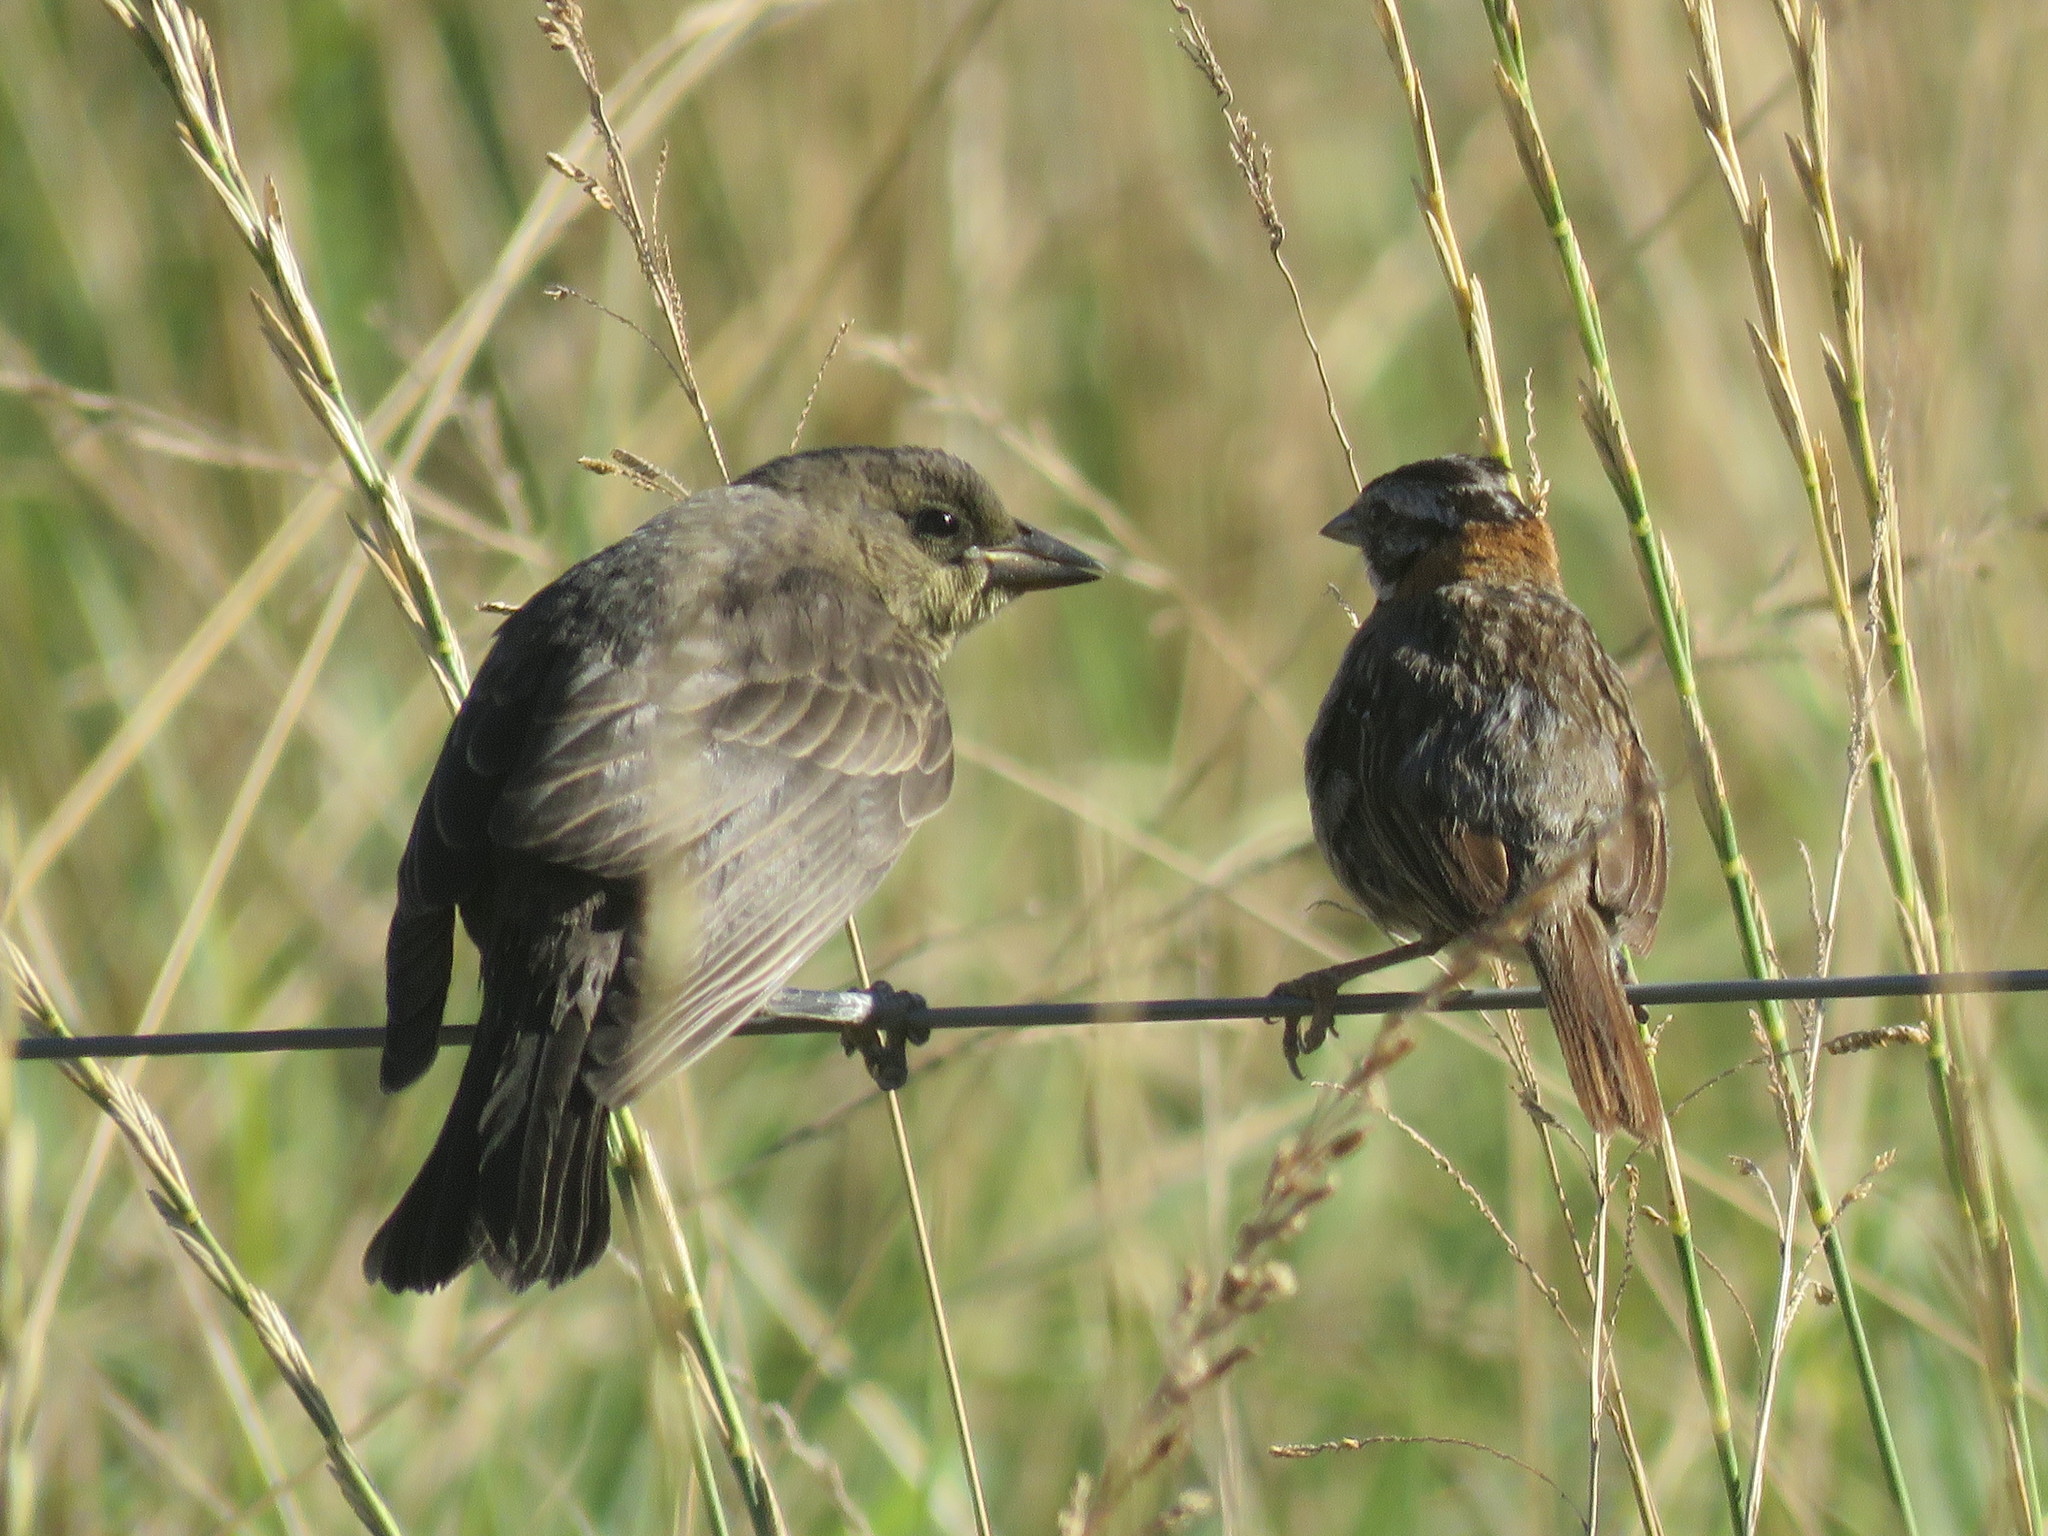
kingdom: Animalia
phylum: Chordata
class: Aves
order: Passeriformes
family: Icteridae
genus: Molothrus
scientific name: Molothrus bonariensis
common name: Shiny cowbird
